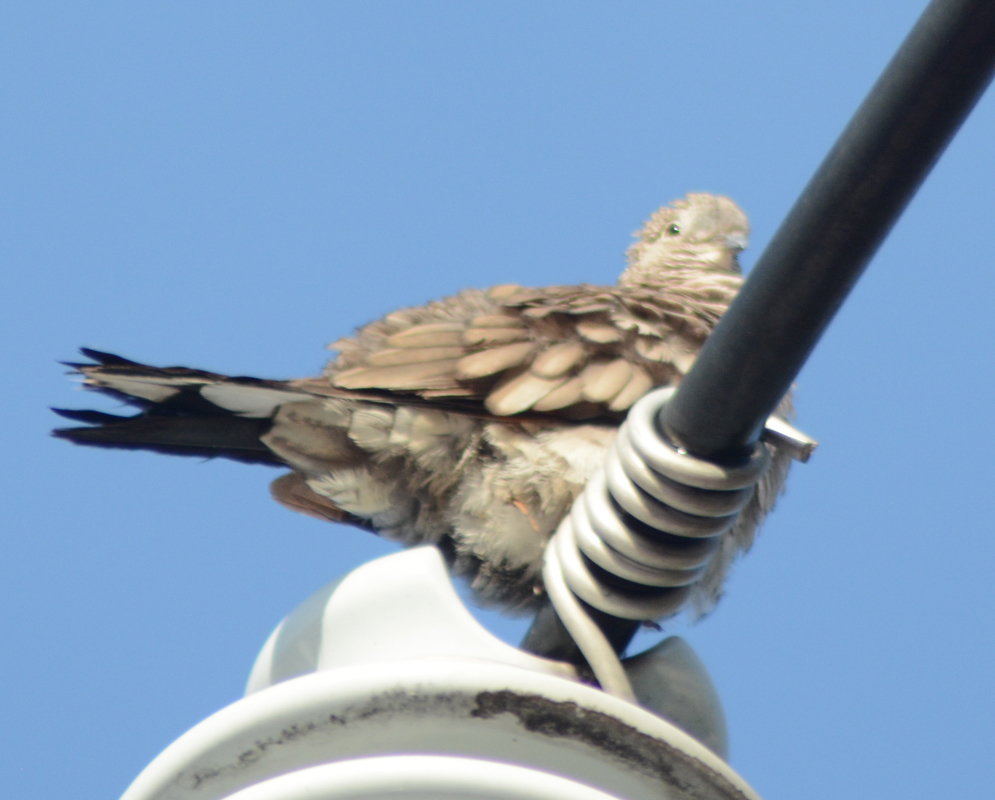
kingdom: Animalia
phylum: Chordata
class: Aves
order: Columbiformes
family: Columbidae
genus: Columbina
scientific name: Columbina inca
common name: Inca dove
